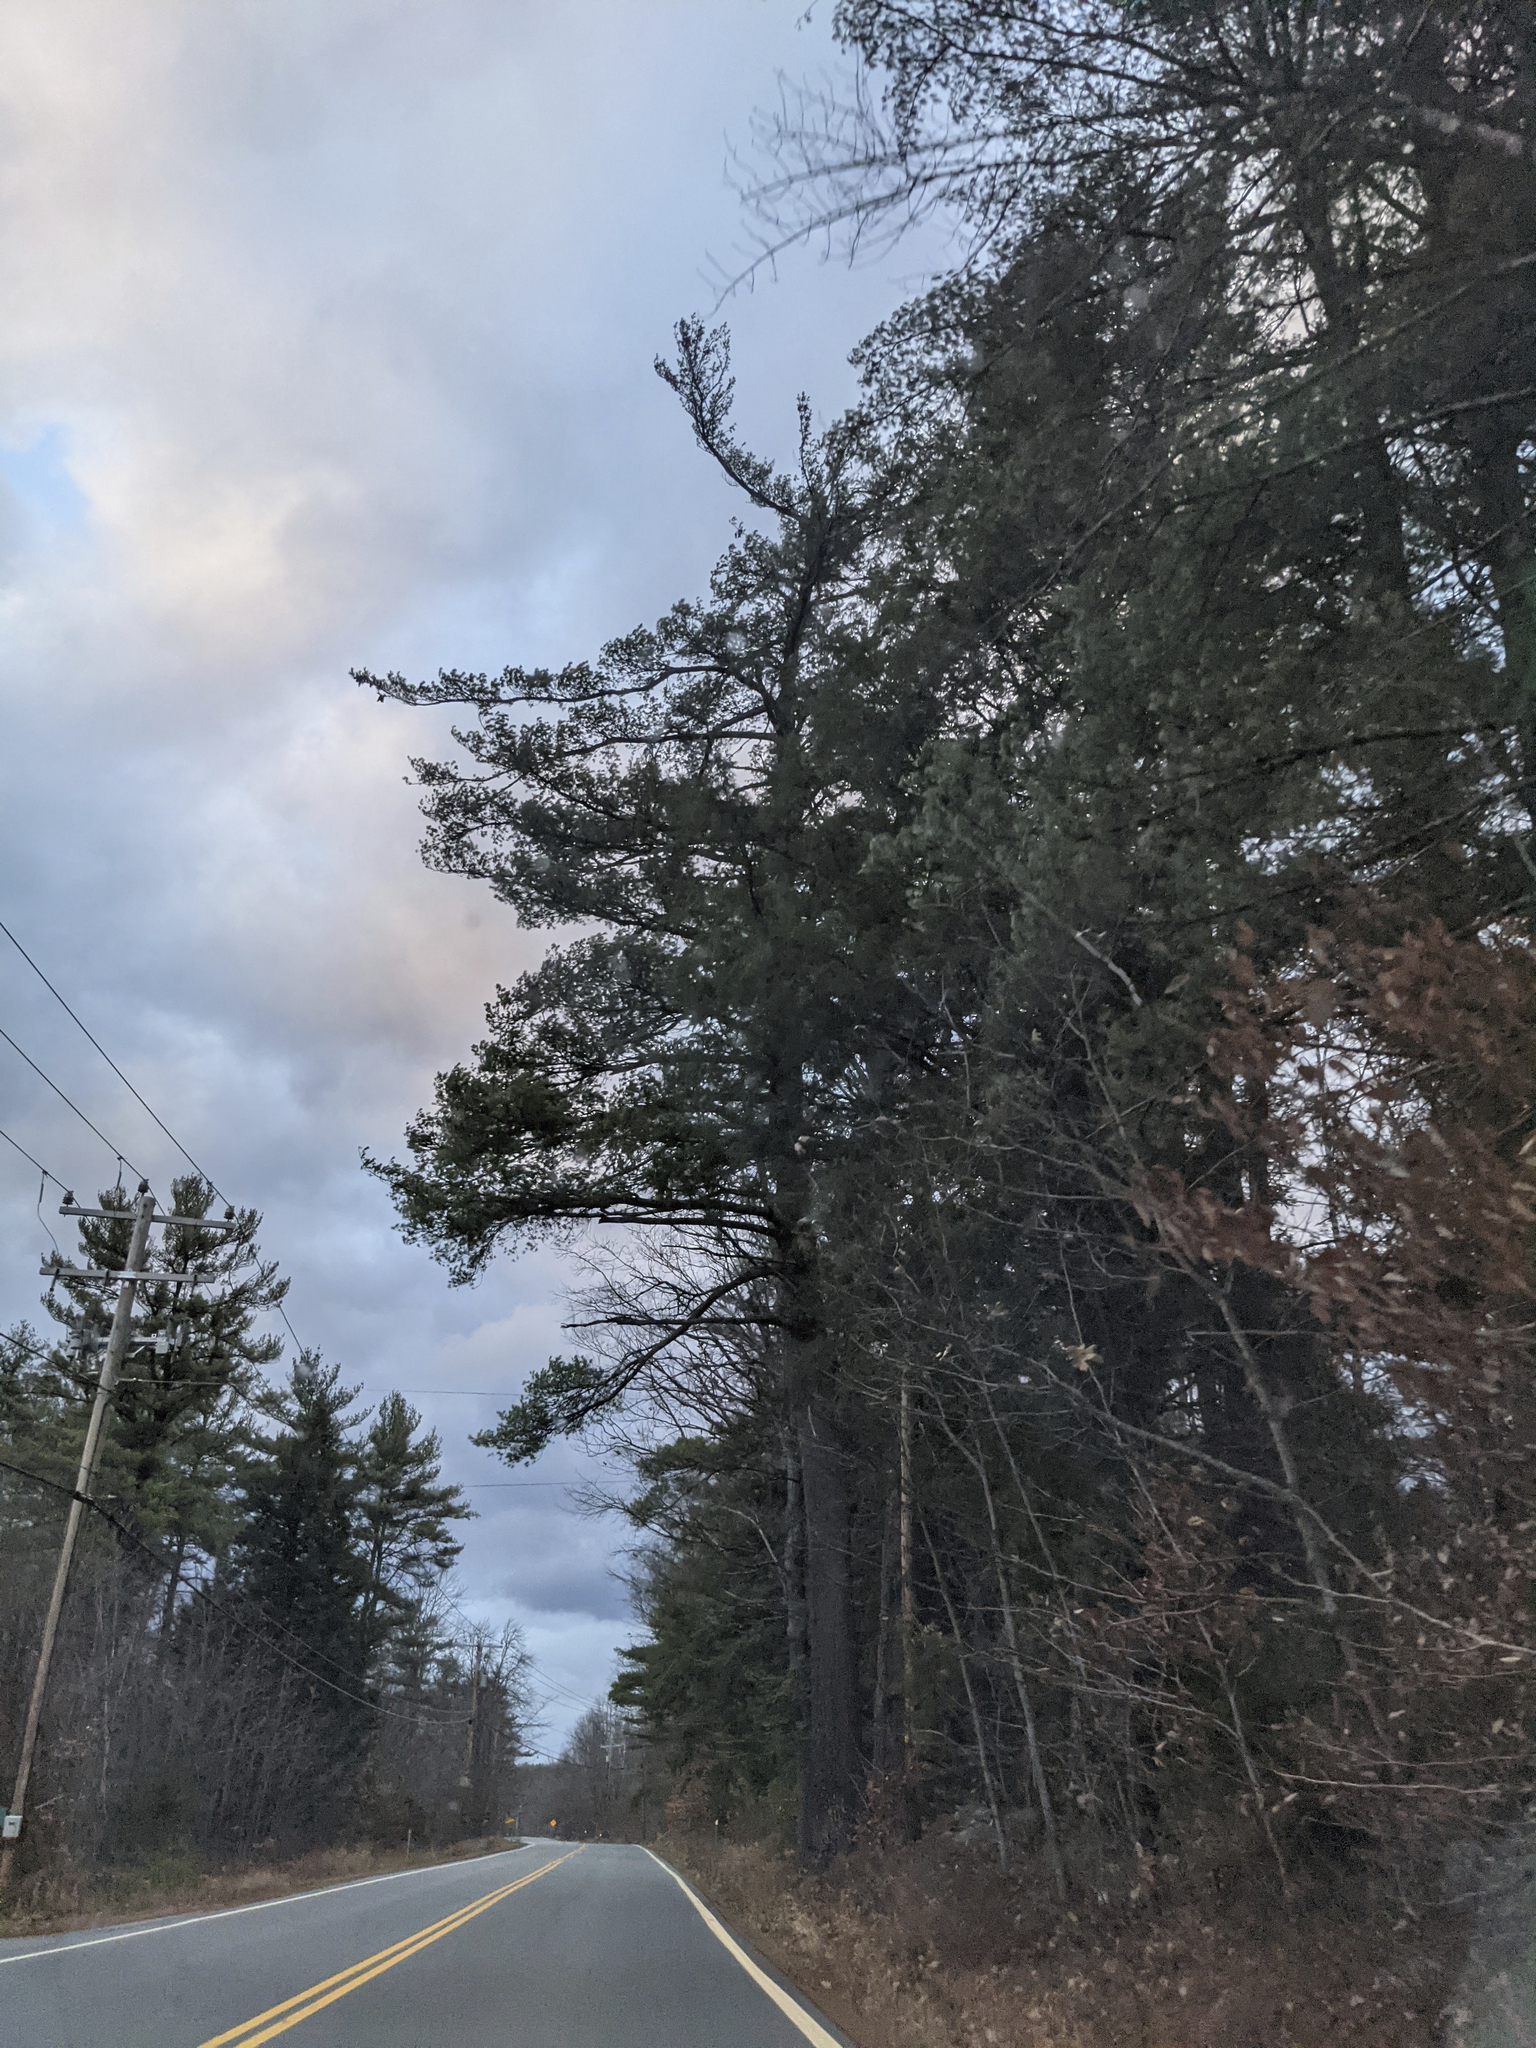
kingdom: Plantae
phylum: Tracheophyta
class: Pinopsida
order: Pinales
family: Pinaceae
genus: Pinus
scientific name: Pinus strobus
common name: Weymouth pine
